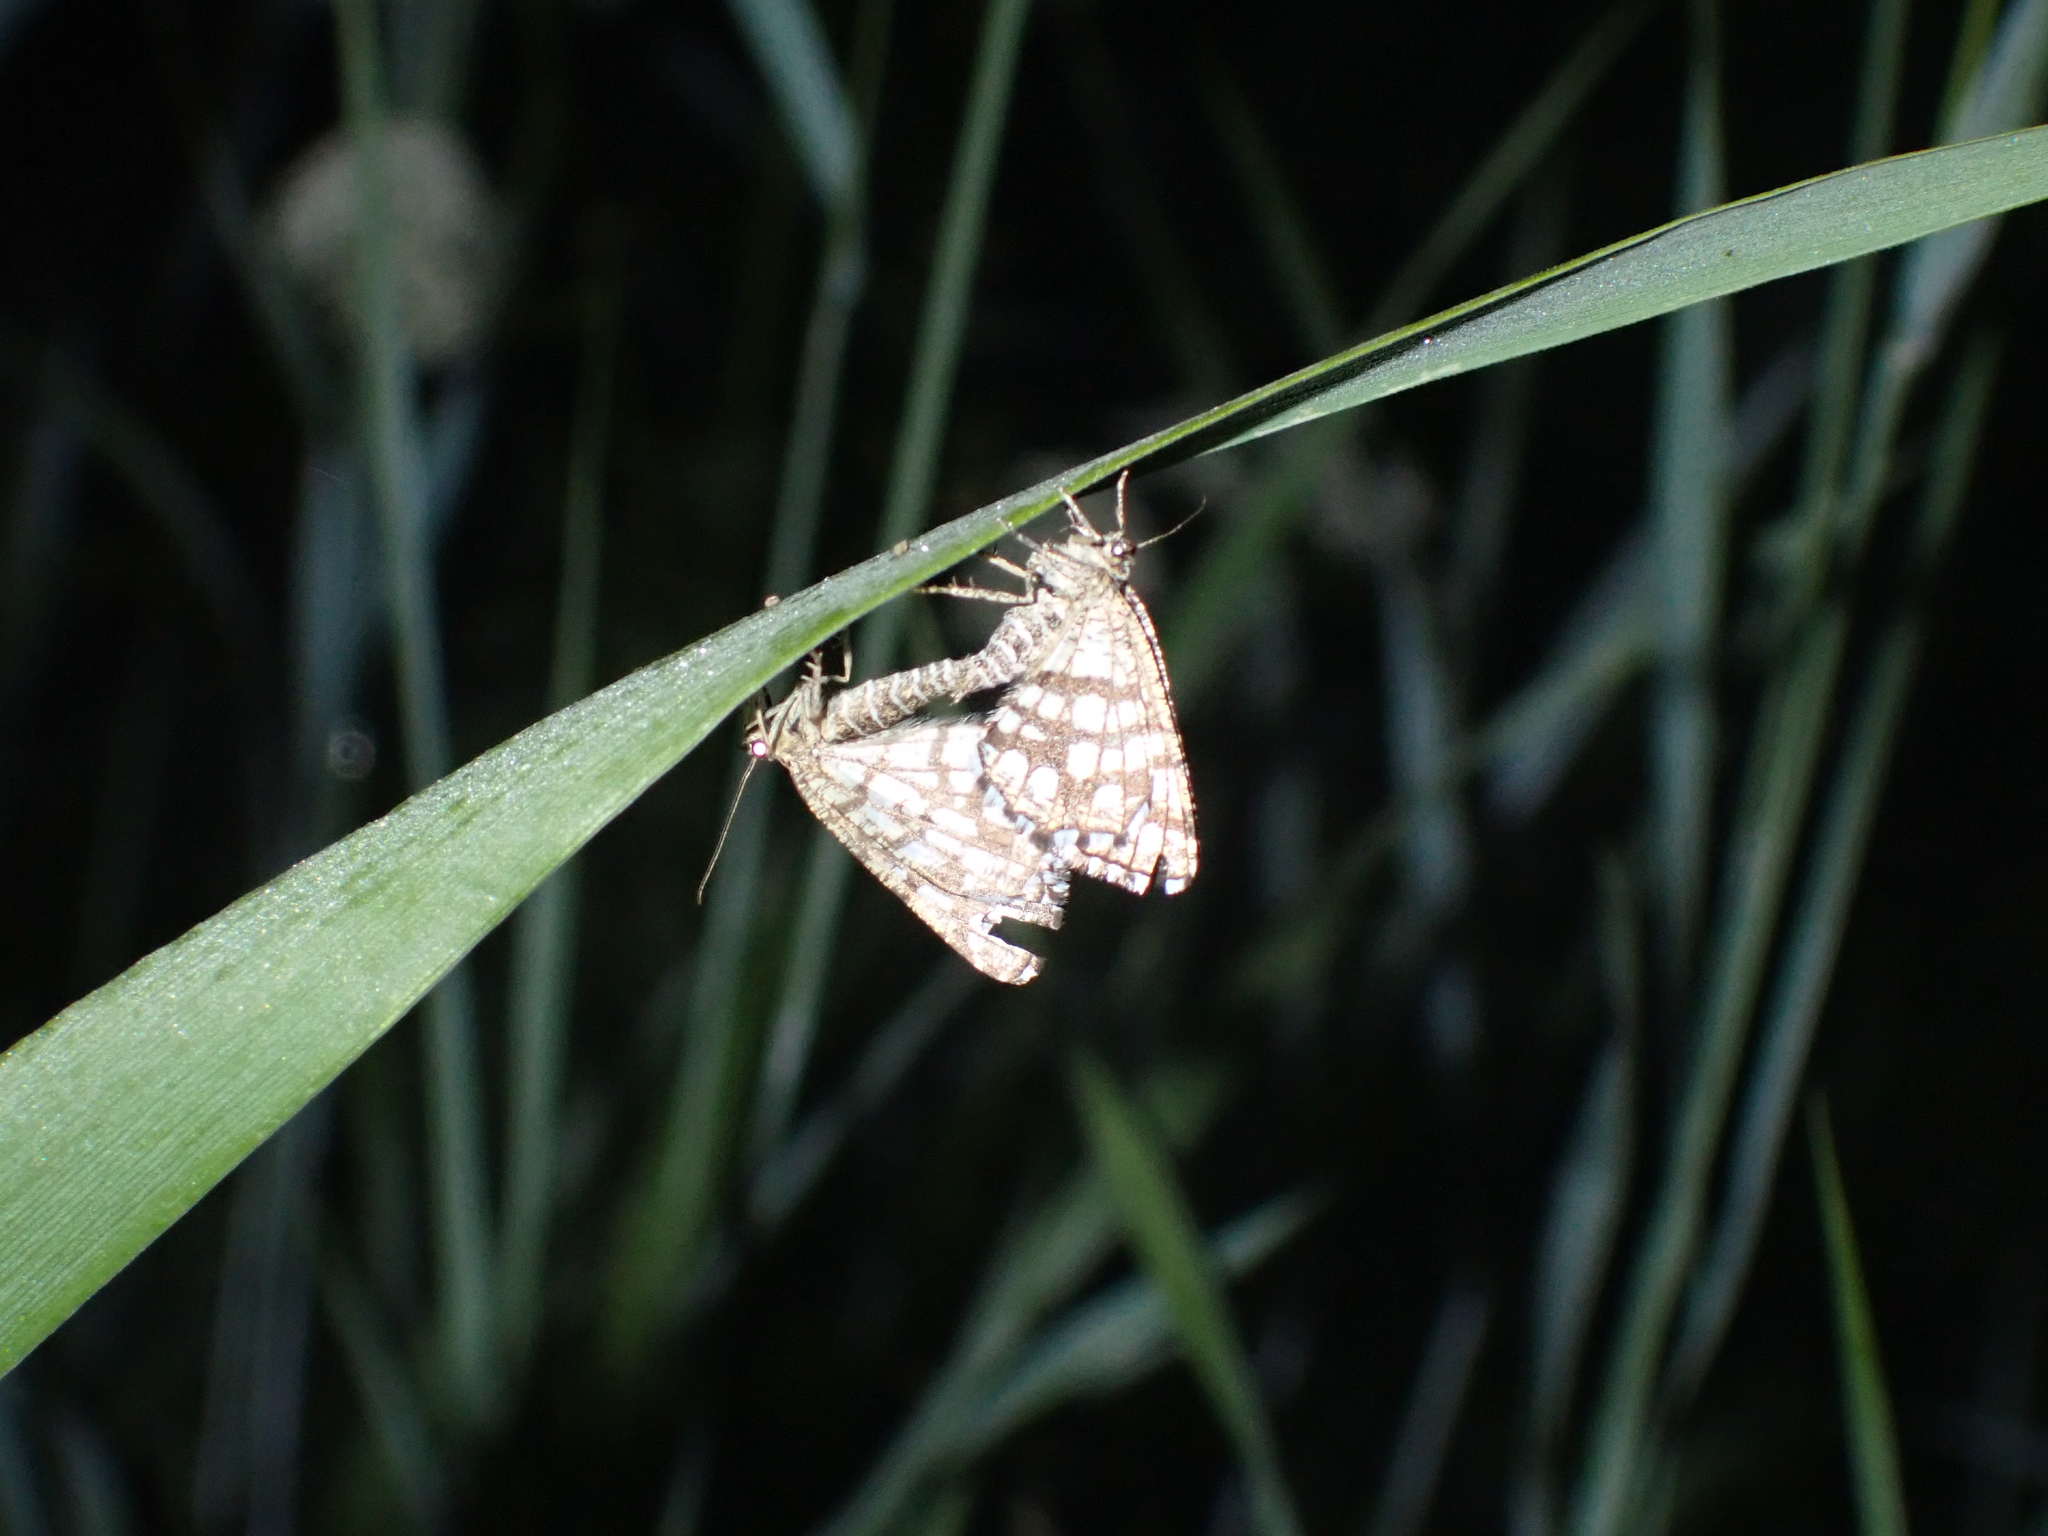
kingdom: Animalia
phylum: Arthropoda
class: Insecta
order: Lepidoptera
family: Geometridae
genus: Chiasmia
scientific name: Chiasmia clathrata
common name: Latticed heath
